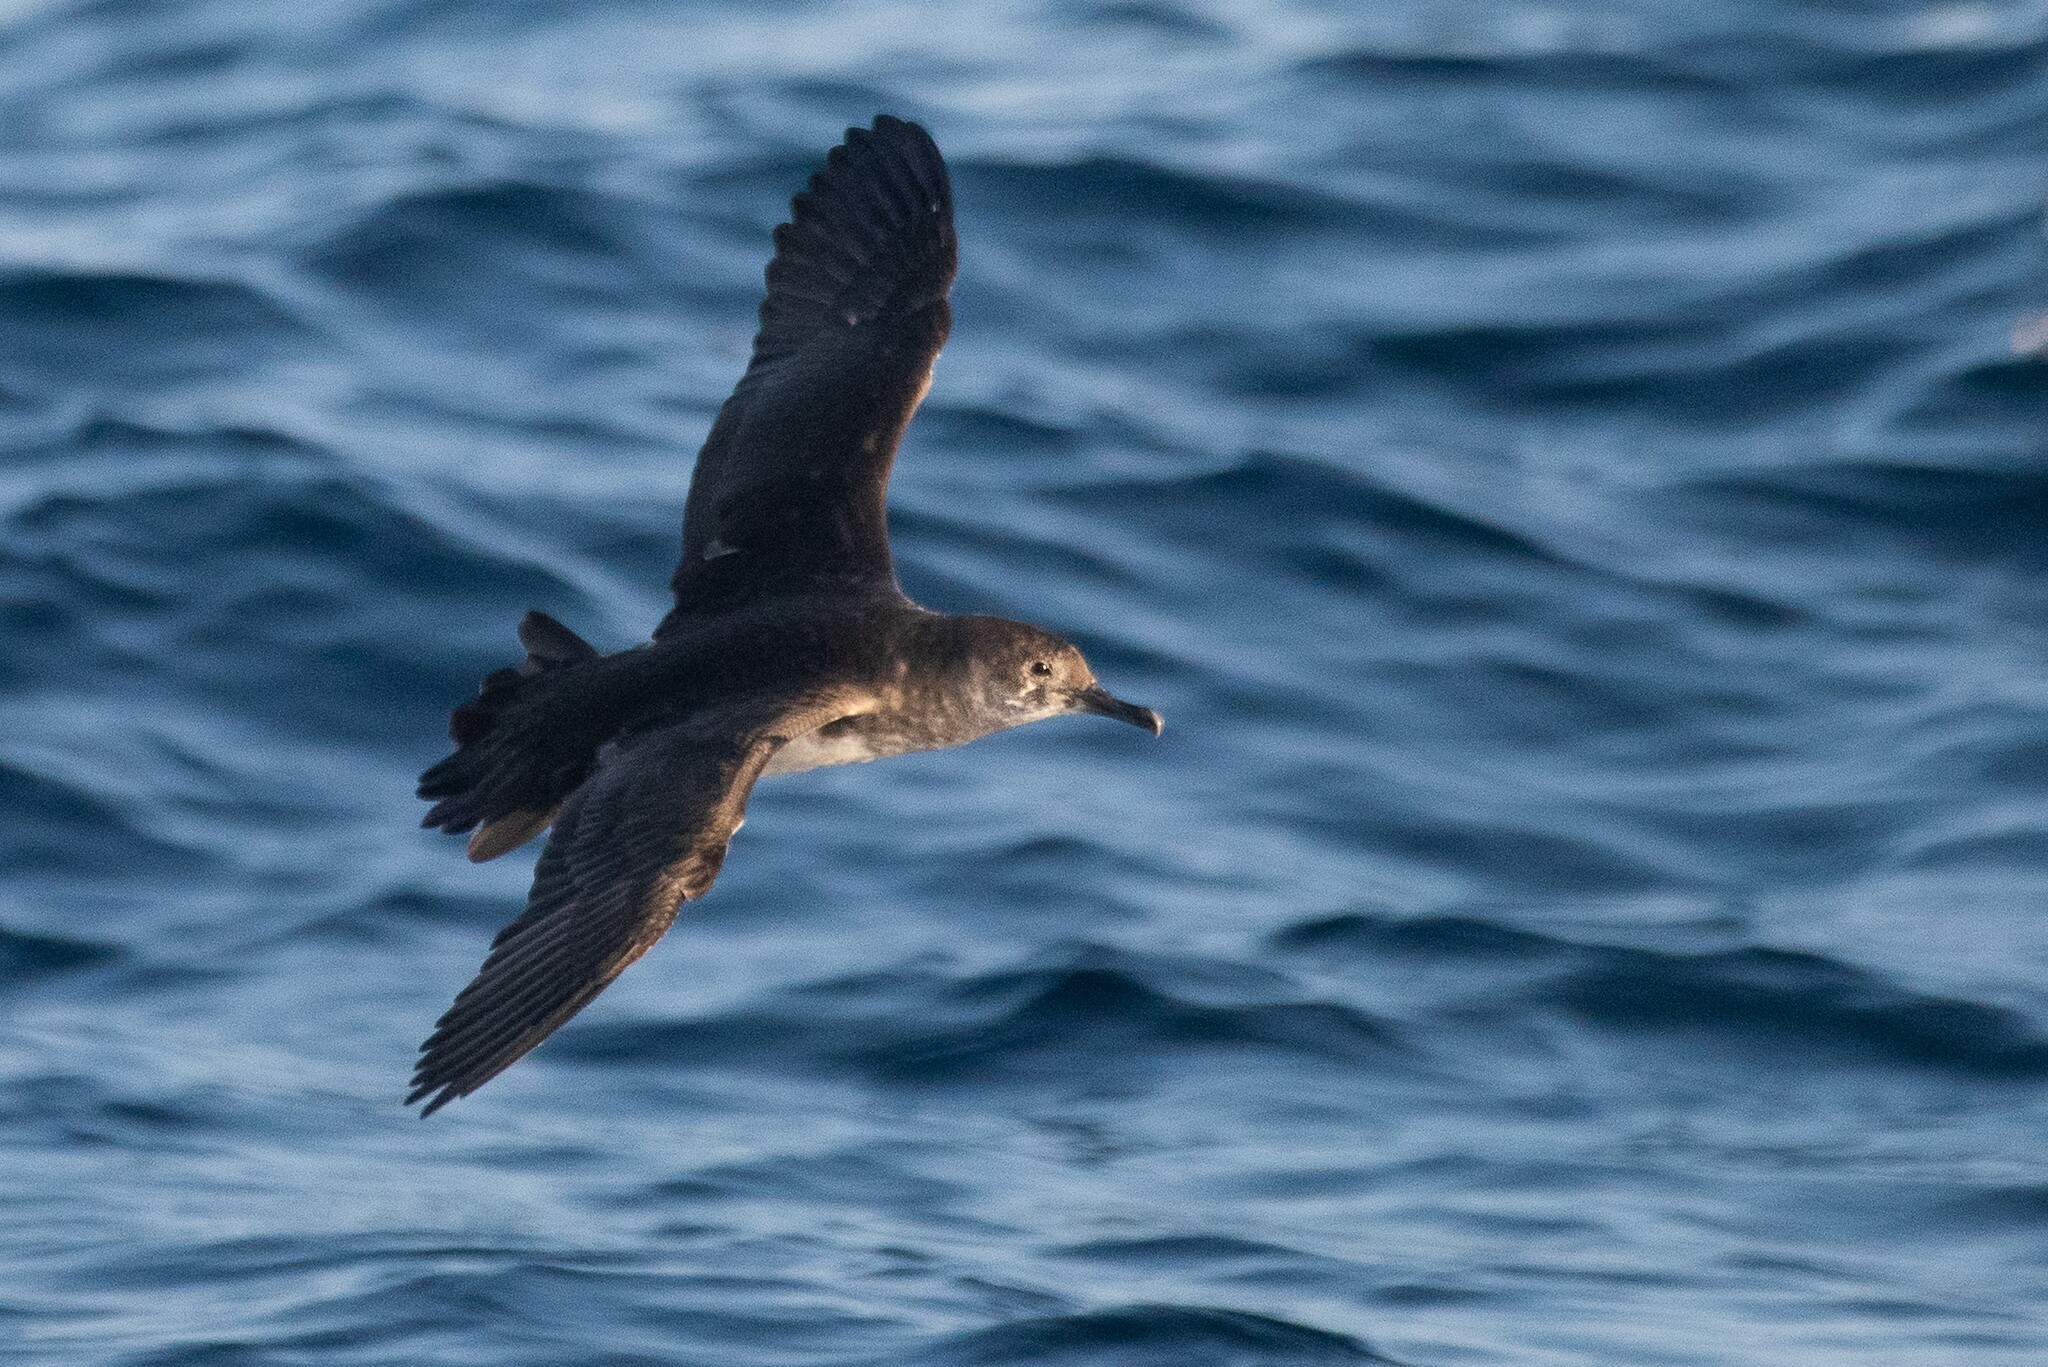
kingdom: Animalia
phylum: Chordata
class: Aves
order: Procellariiformes
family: Procellariidae
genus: Puffinus
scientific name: Puffinus opisthomelas
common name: Black-vented shearwater
